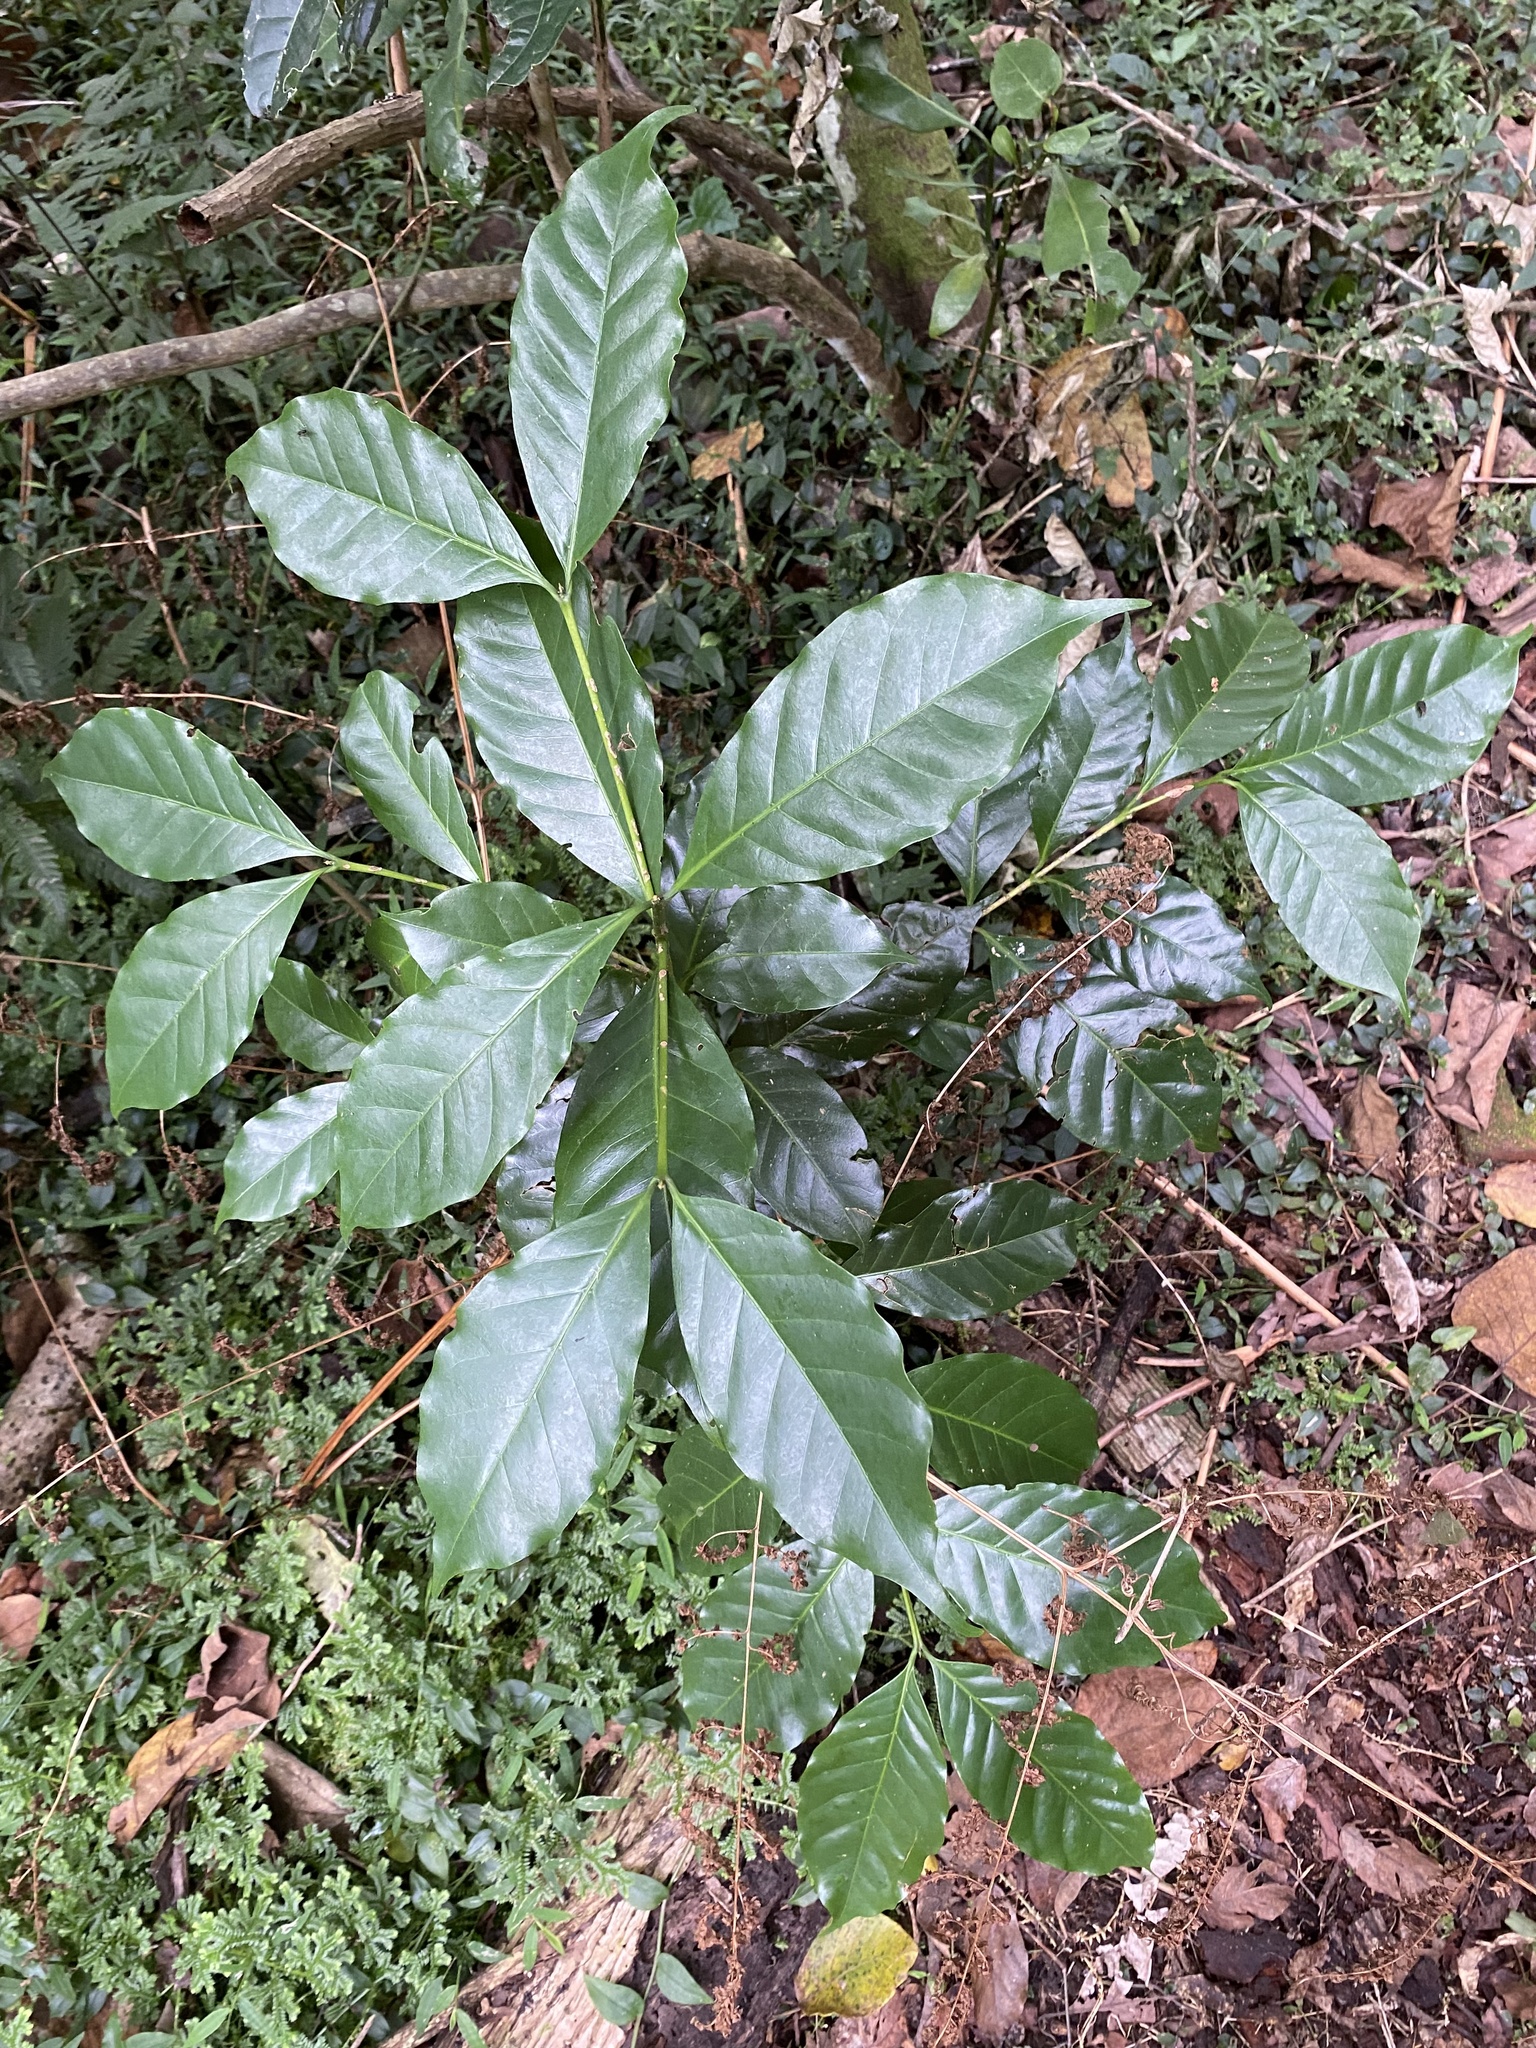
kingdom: Plantae
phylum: Tracheophyta
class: Magnoliopsida
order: Gentianales
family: Rubiaceae
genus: Coffea
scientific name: Coffea arabica
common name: Coffee
